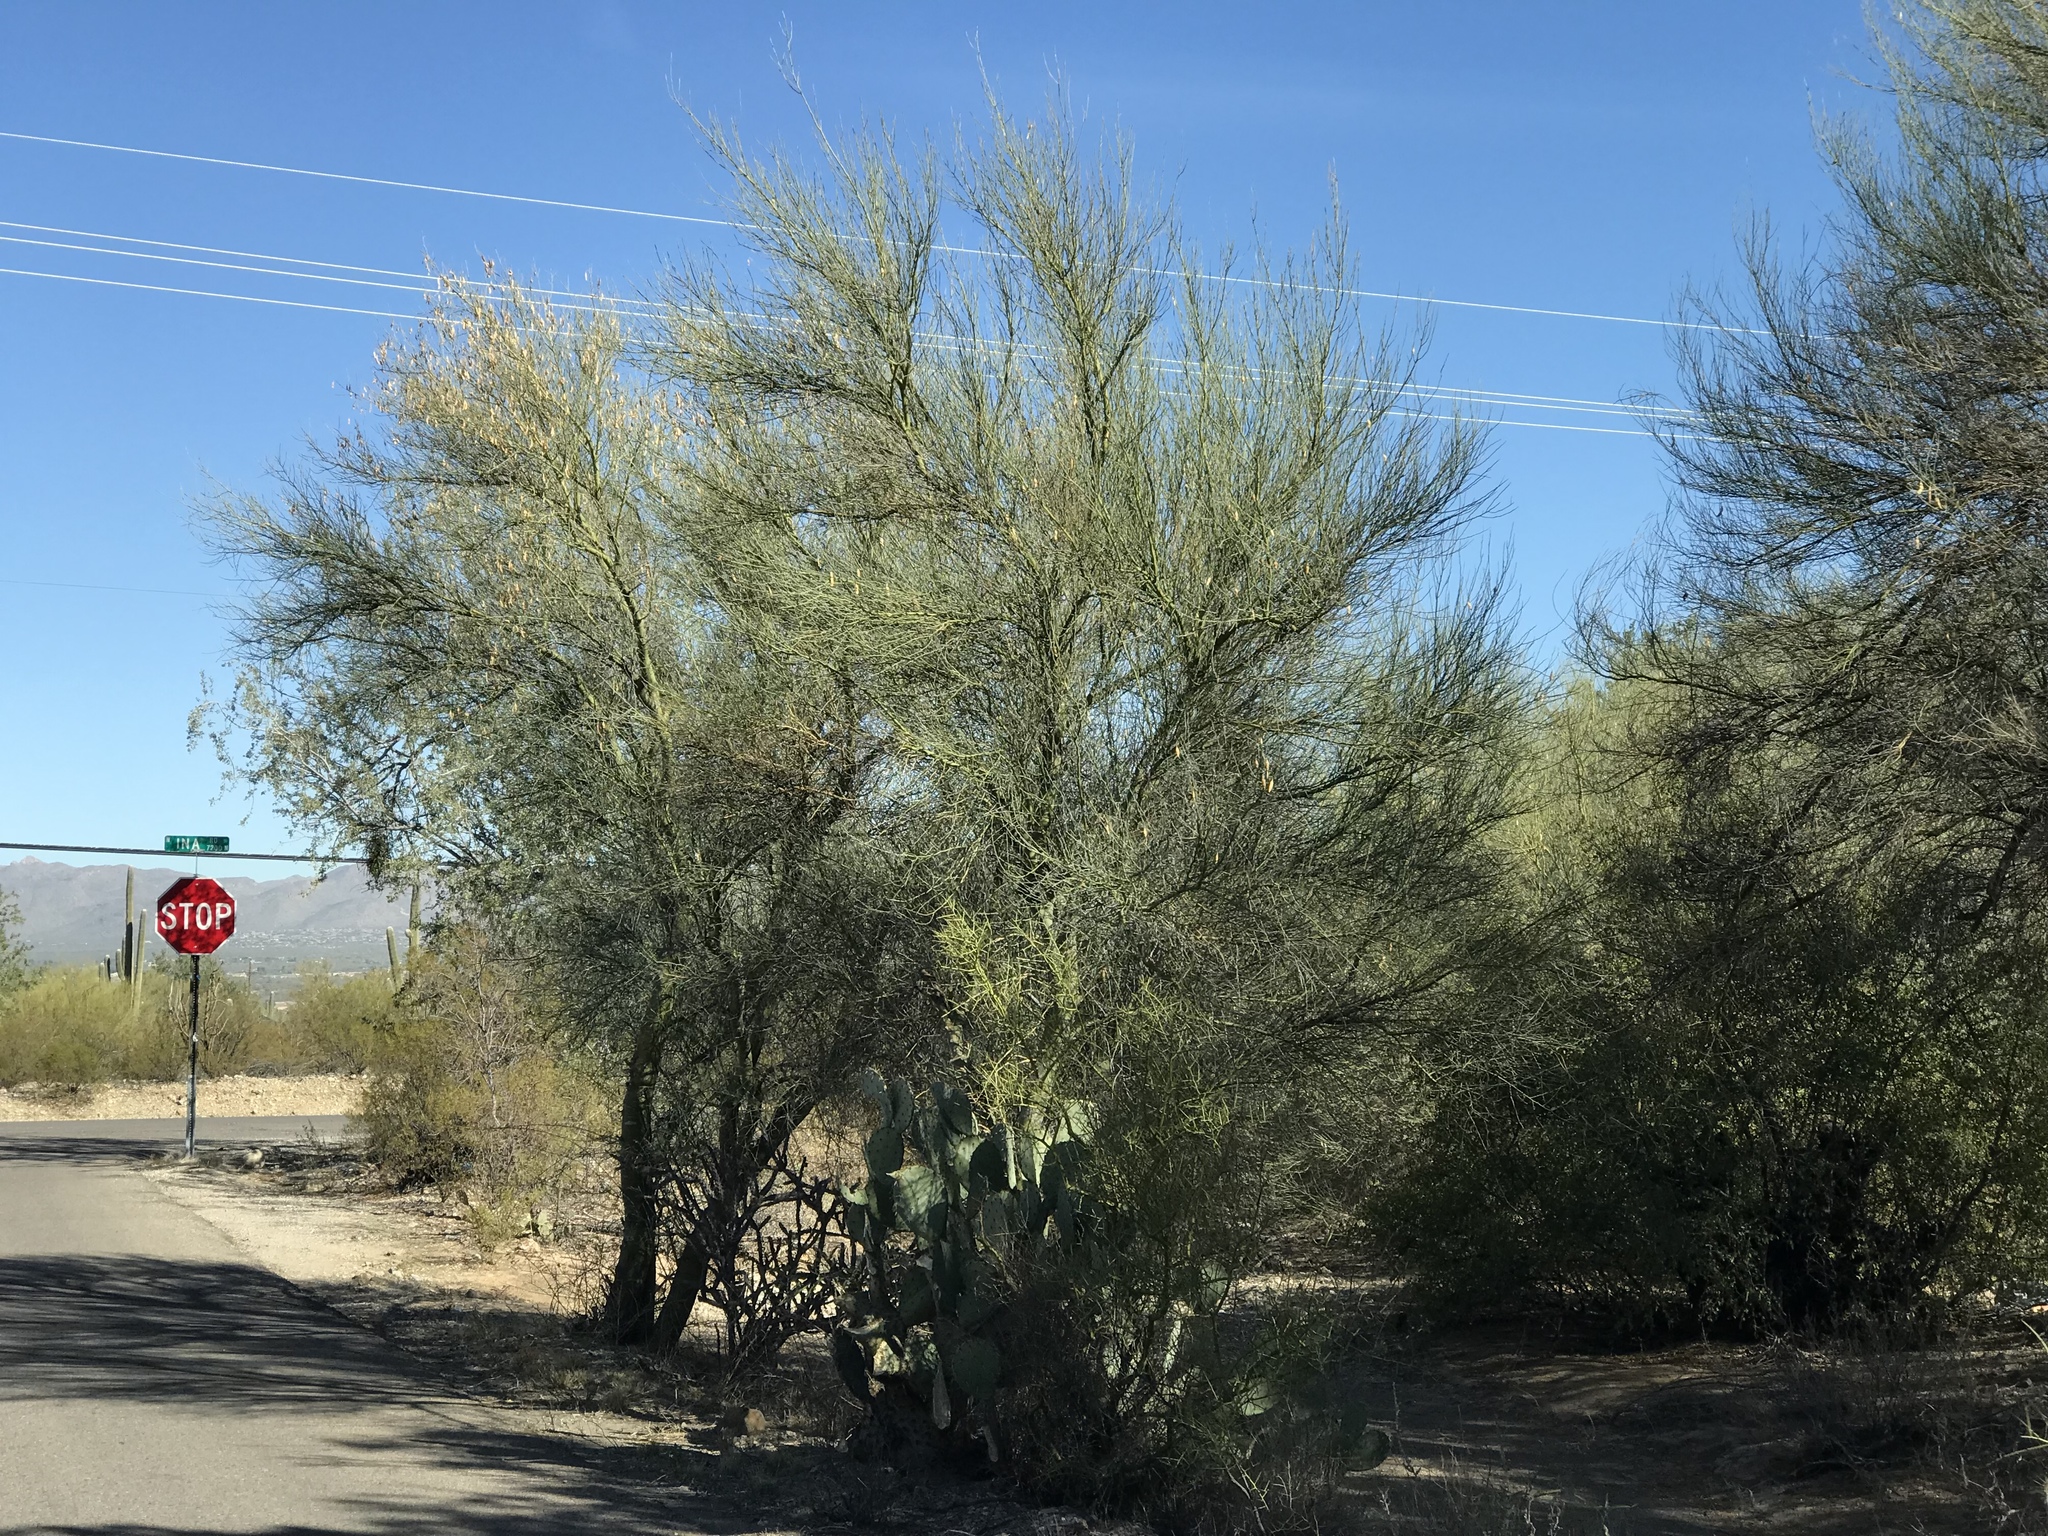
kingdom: Plantae
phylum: Tracheophyta
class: Magnoliopsida
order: Fabales
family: Fabaceae
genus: Parkinsonia
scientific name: Parkinsonia florida
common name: Blue paloverde
